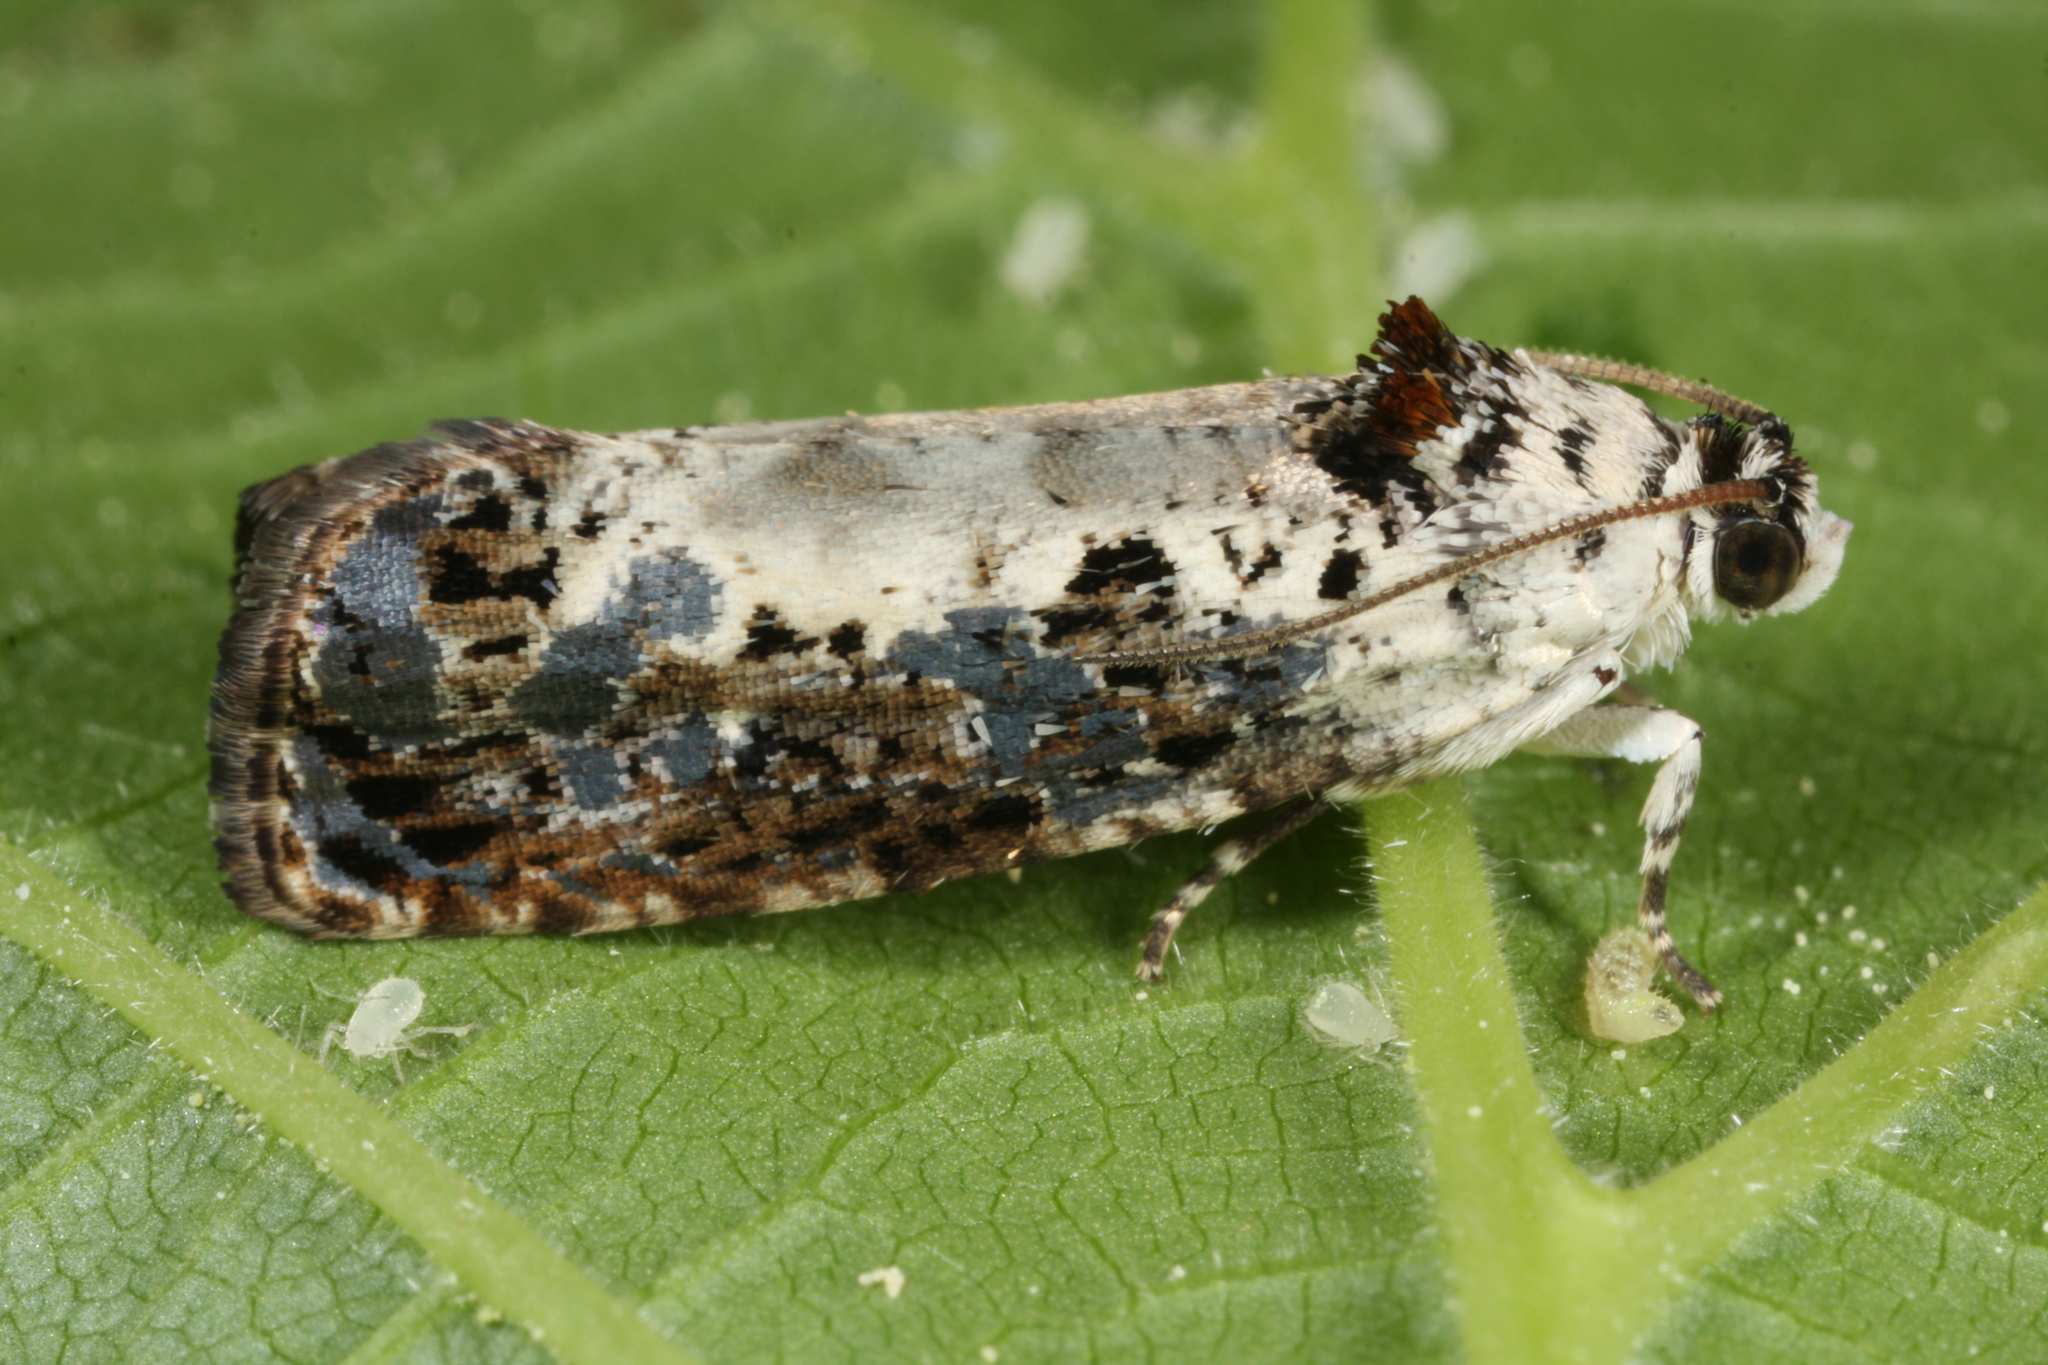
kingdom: Animalia
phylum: Arthropoda
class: Insecta
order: Lepidoptera
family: Tortricidae
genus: Hedya
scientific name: Hedya salicella
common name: Large tortricid moth
